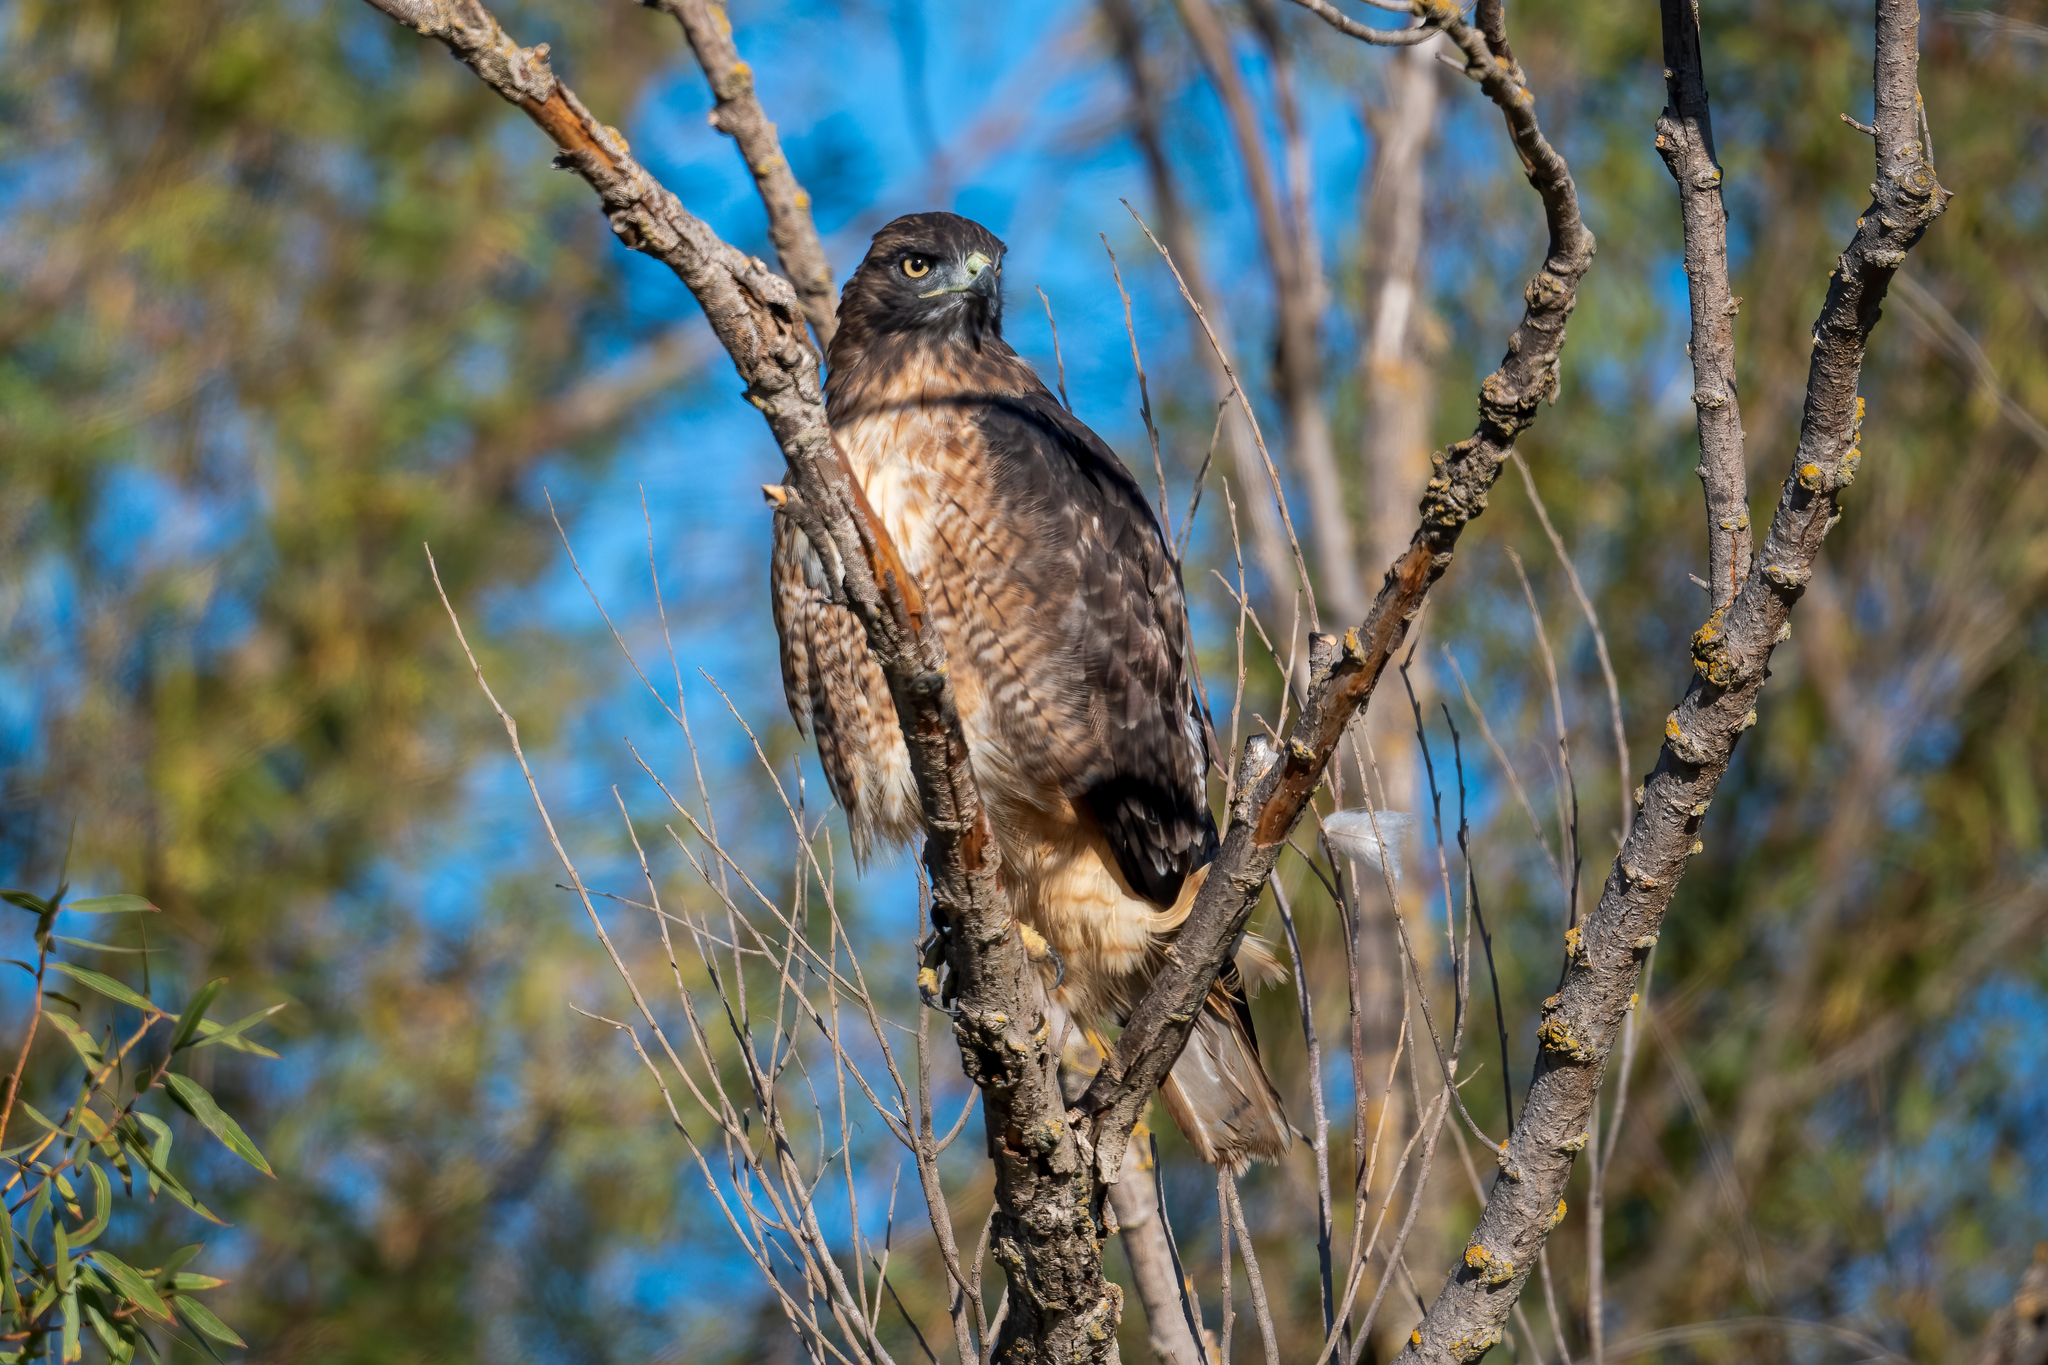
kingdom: Animalia
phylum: Chordata
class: Aves
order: Accipitriformes
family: Accipitridae
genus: Buteo
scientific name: Buteo jamaicensis
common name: Red-tailed hawk
